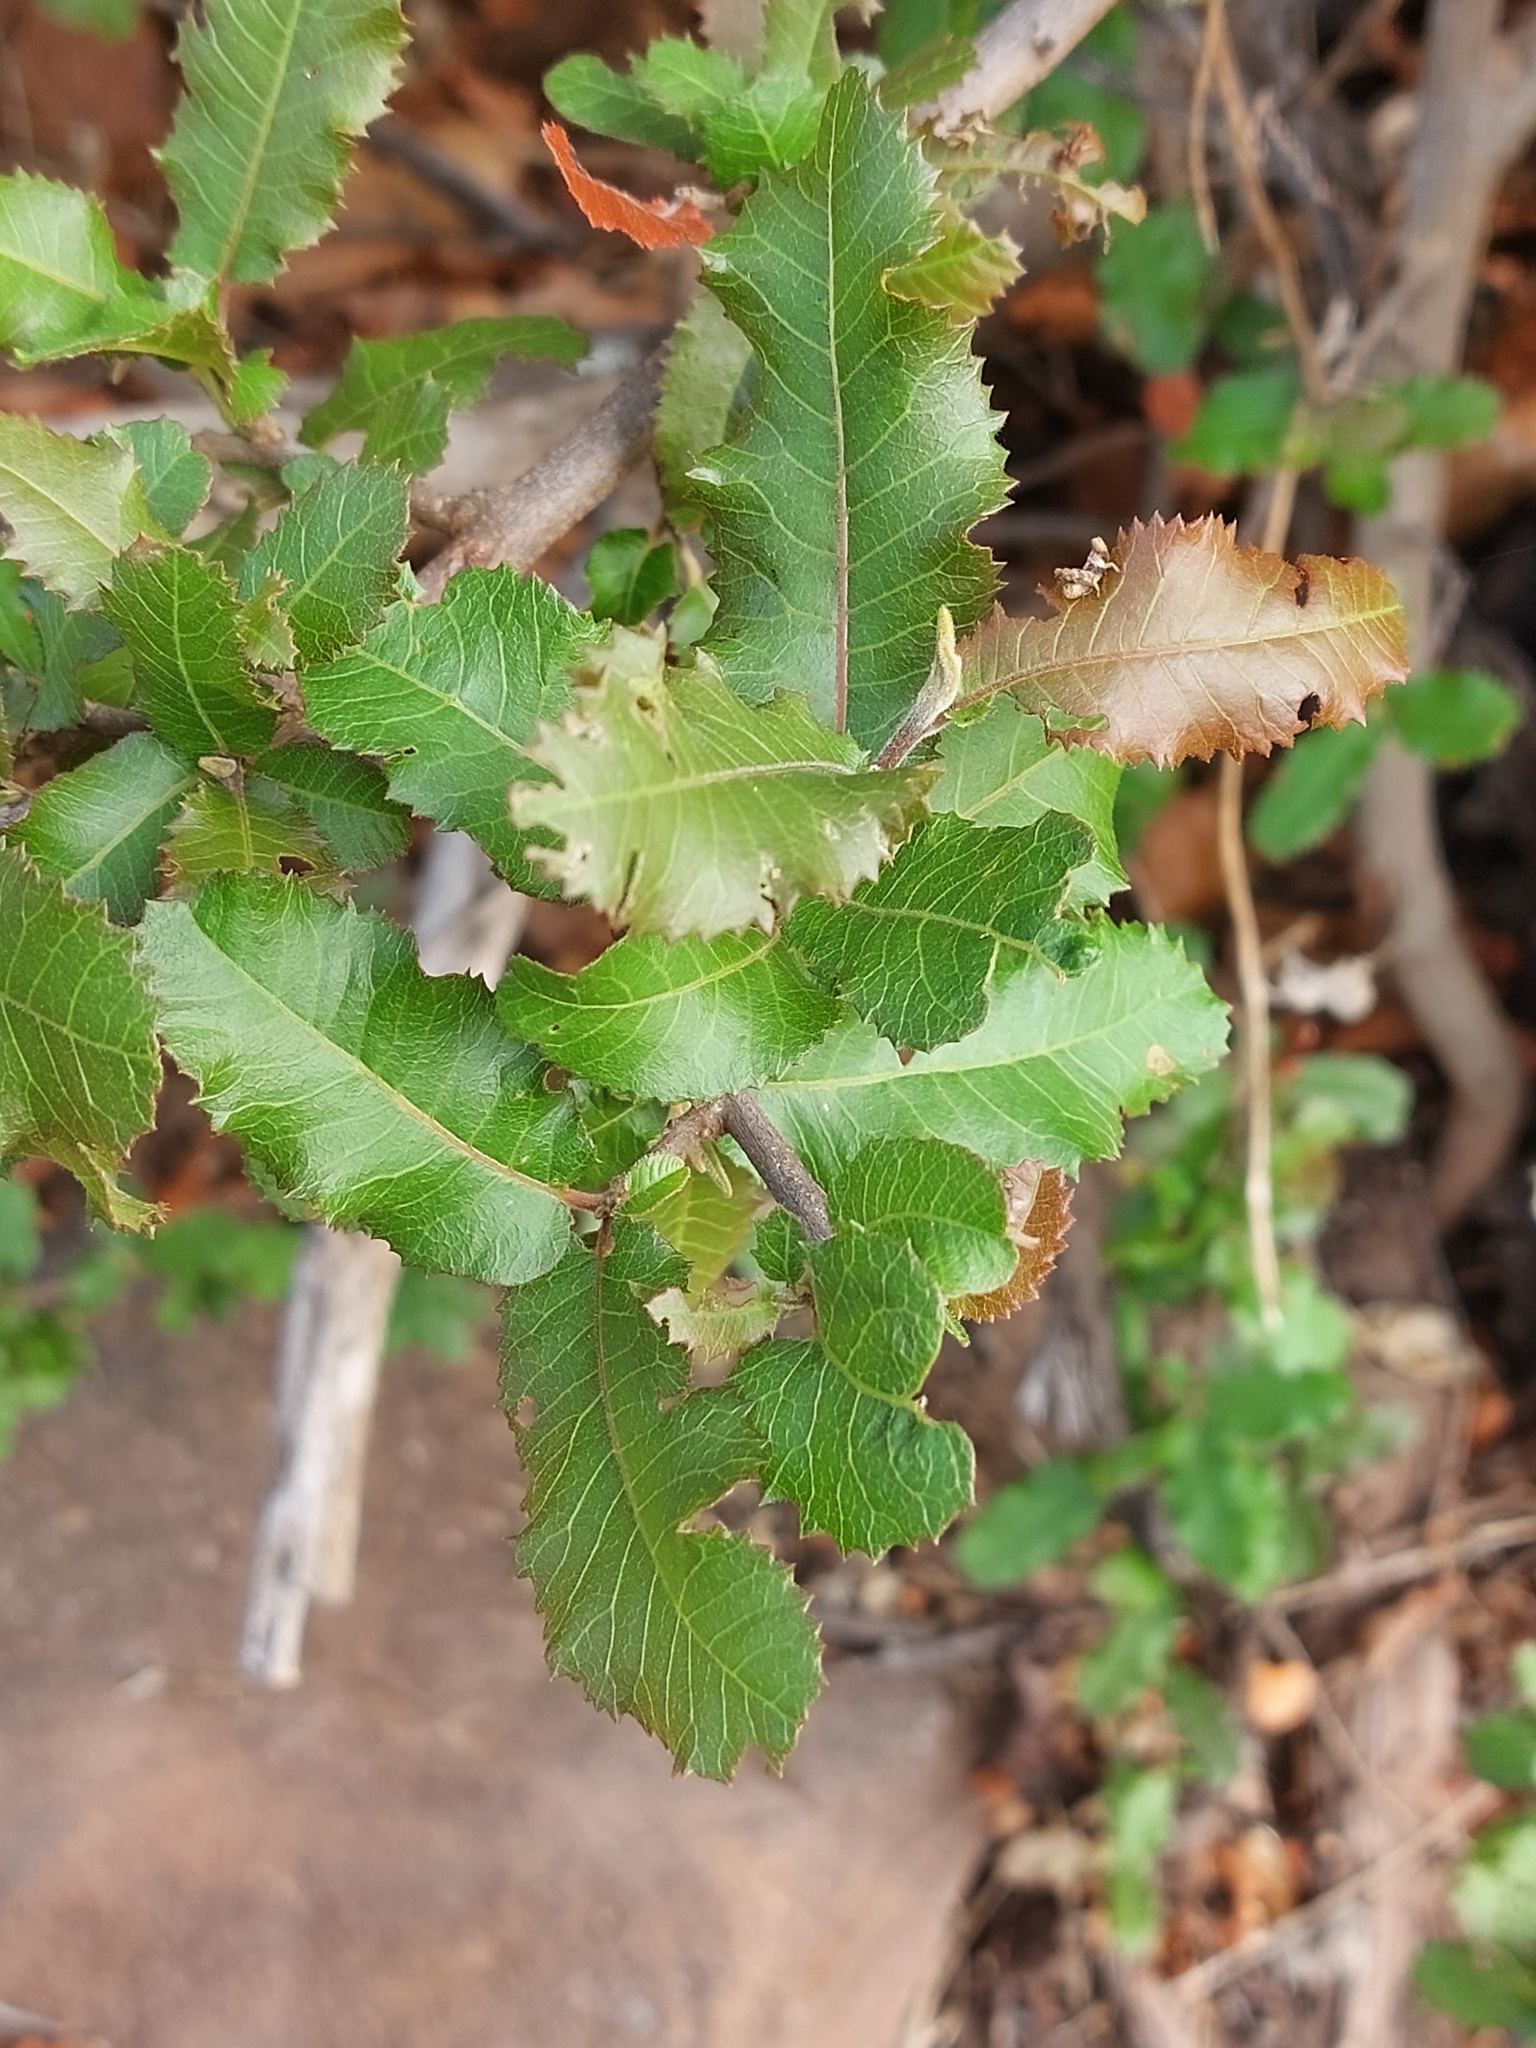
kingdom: Plantae
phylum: Tracheophyta
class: Magnoliopsida
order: Sapindales
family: Sapindaceae
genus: Pappea
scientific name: Pappea capensis
